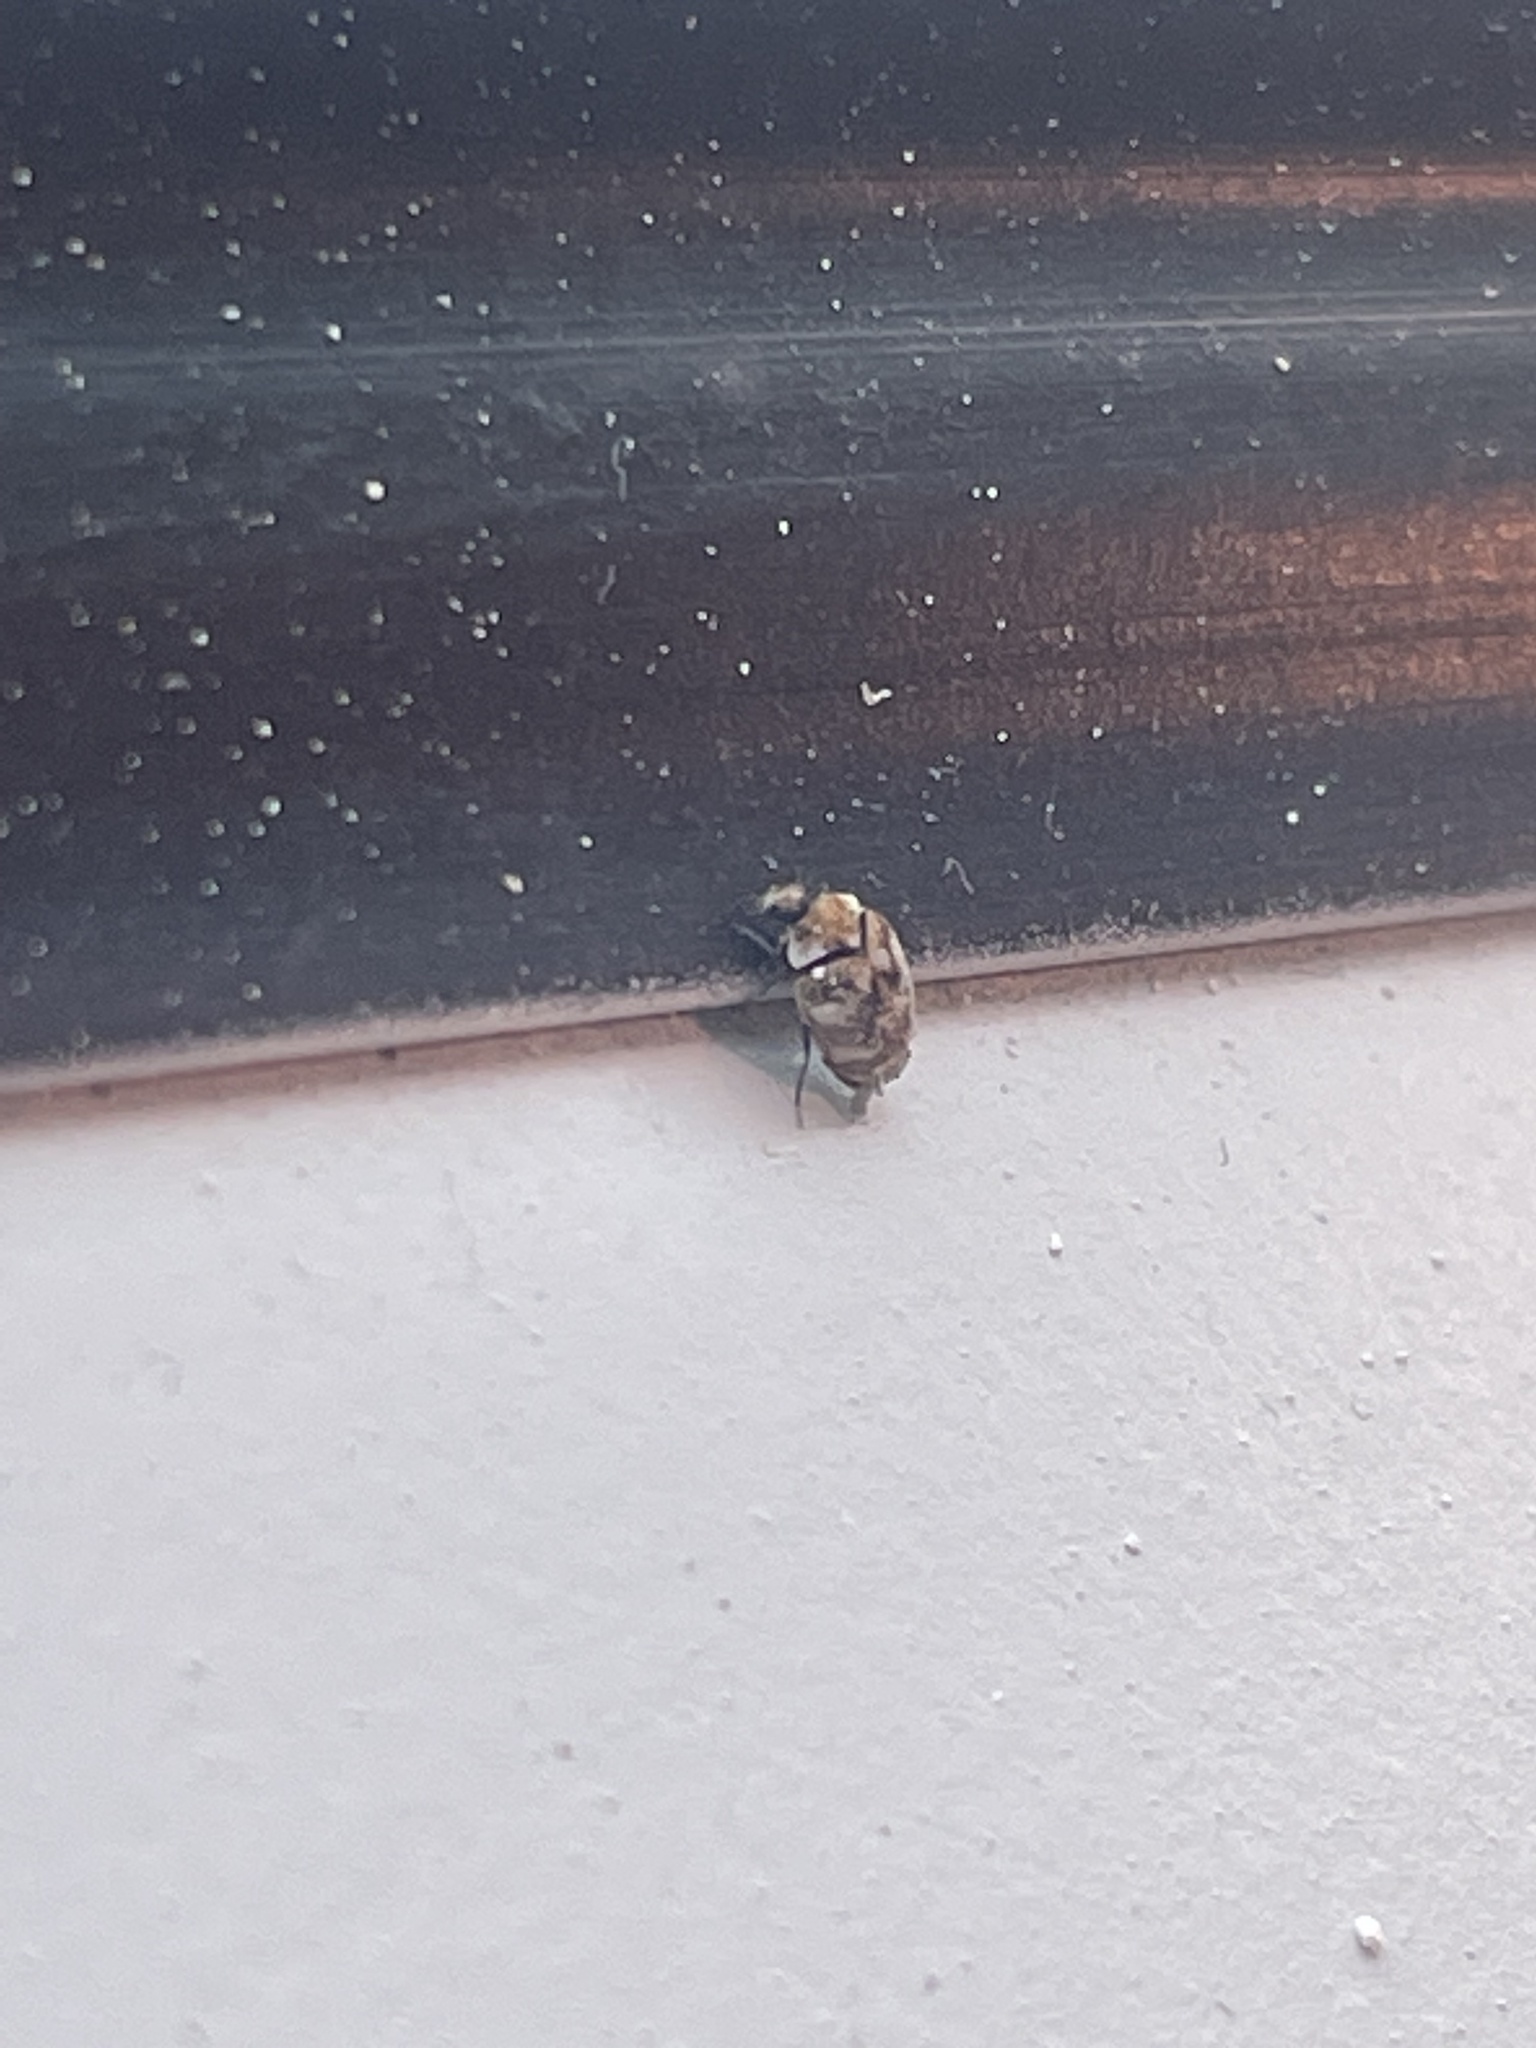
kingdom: Animalia
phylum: Arthropoda
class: Insecta
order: Coleoptera
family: Dermestidae
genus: Anthrenus
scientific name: Anthrenus verbasci
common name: Varied carpet beetle
